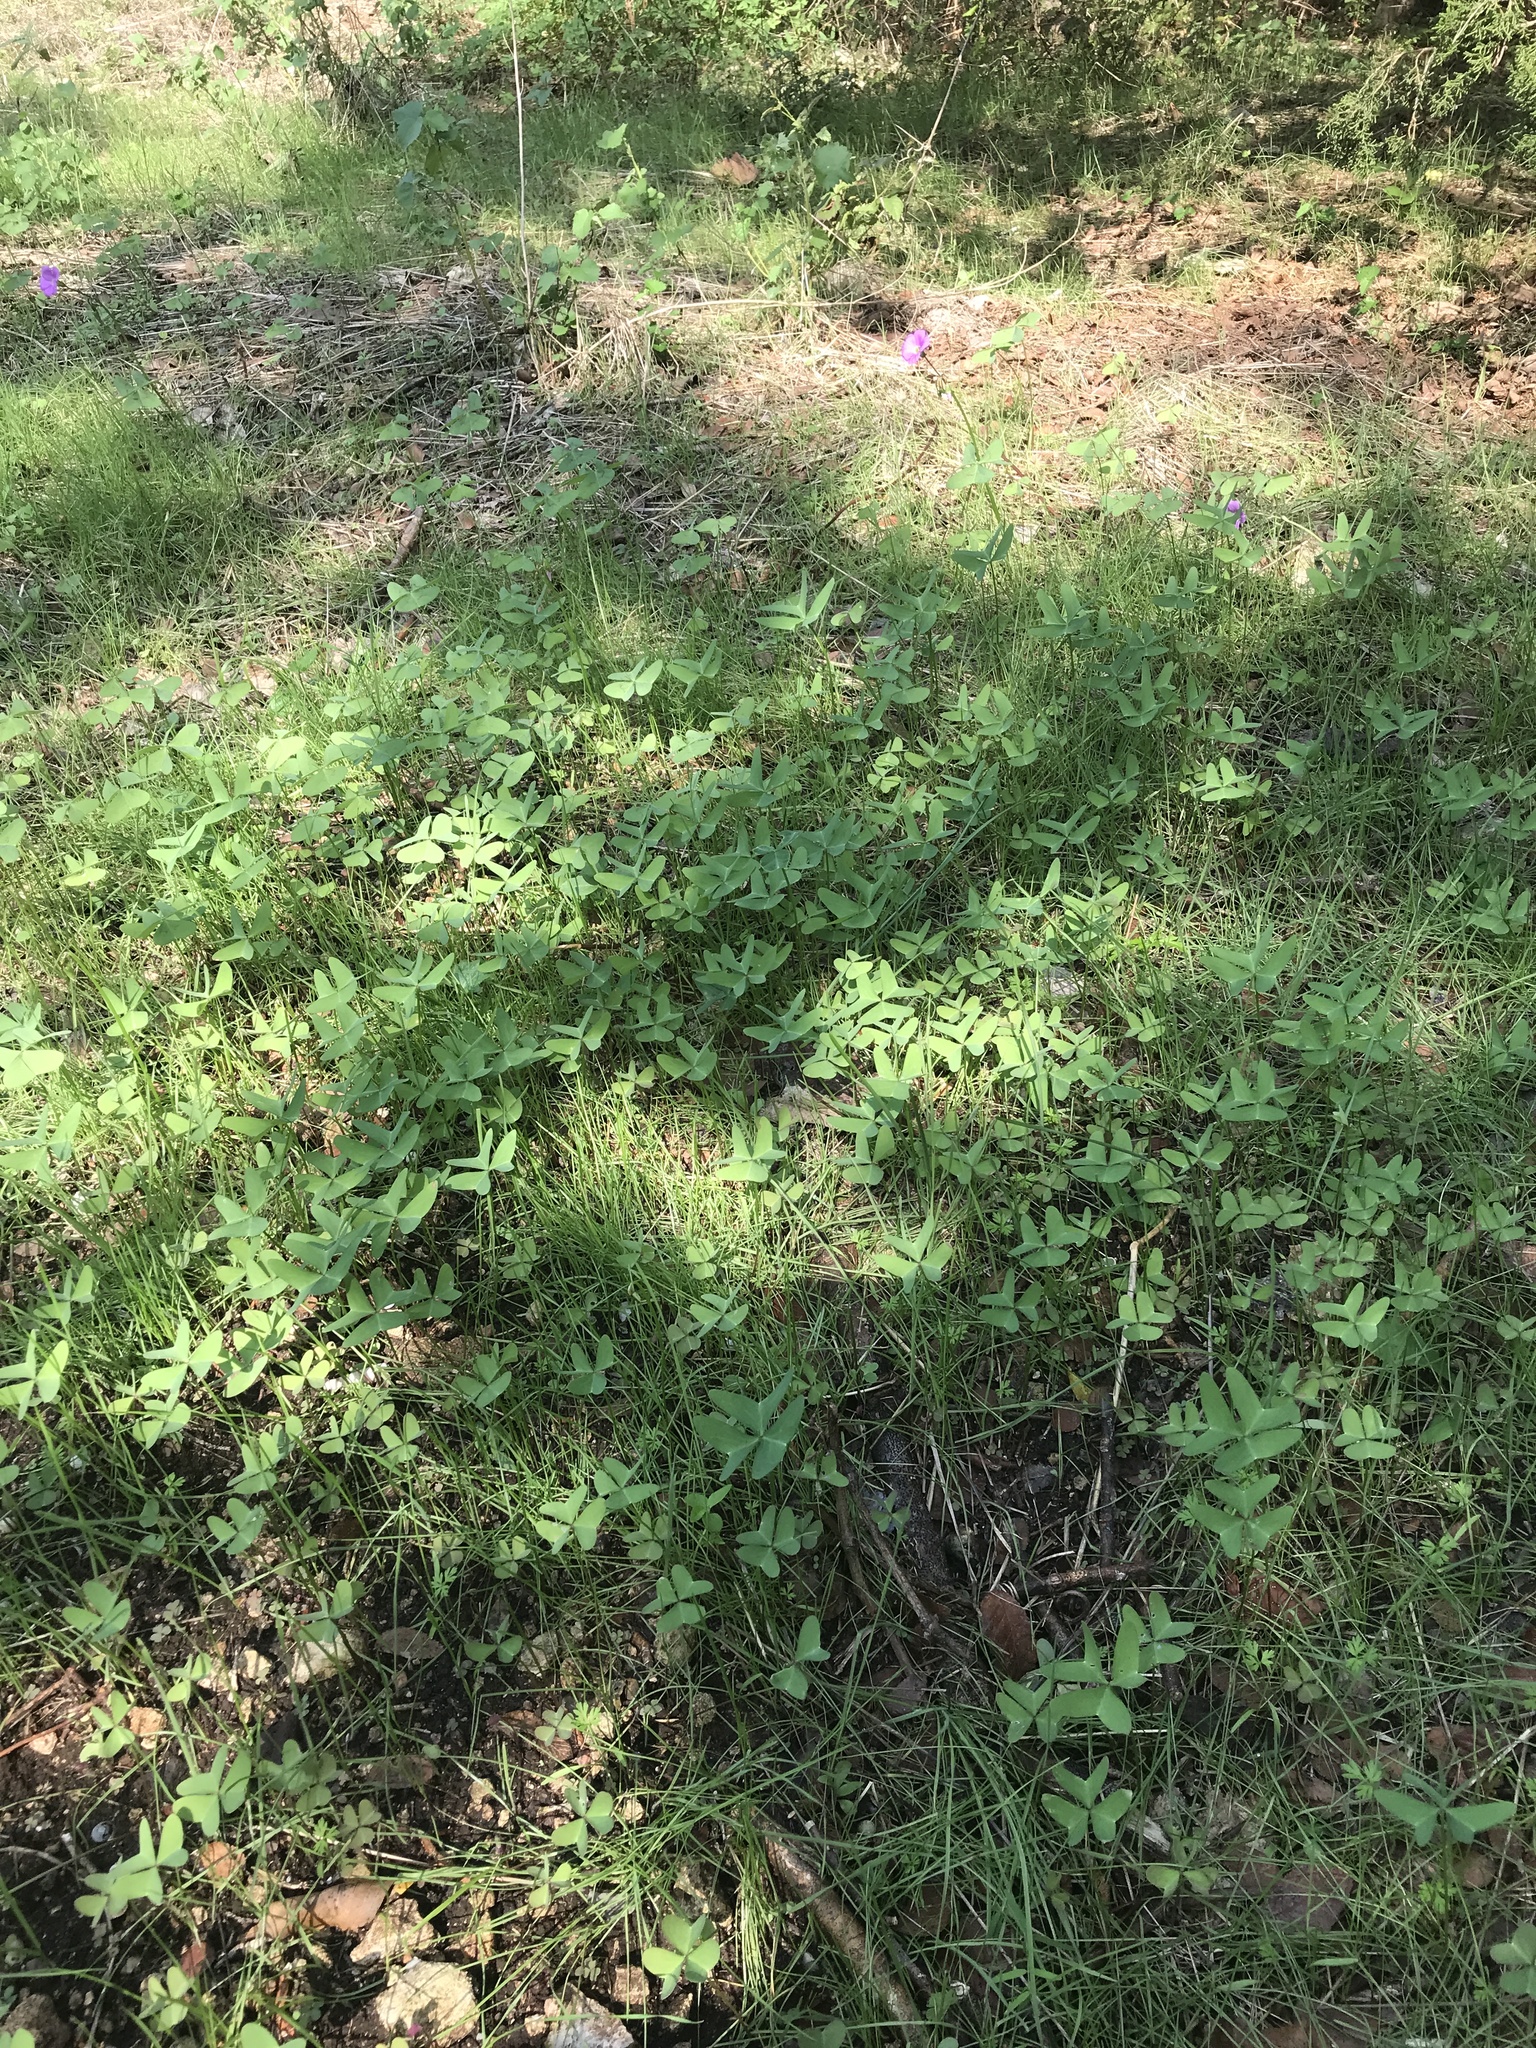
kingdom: Plantae
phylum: Tracheophyta
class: Magnoliopsida
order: Oxalidales
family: Oxalidaceae
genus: Oxalis
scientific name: Oxalis drummondii
